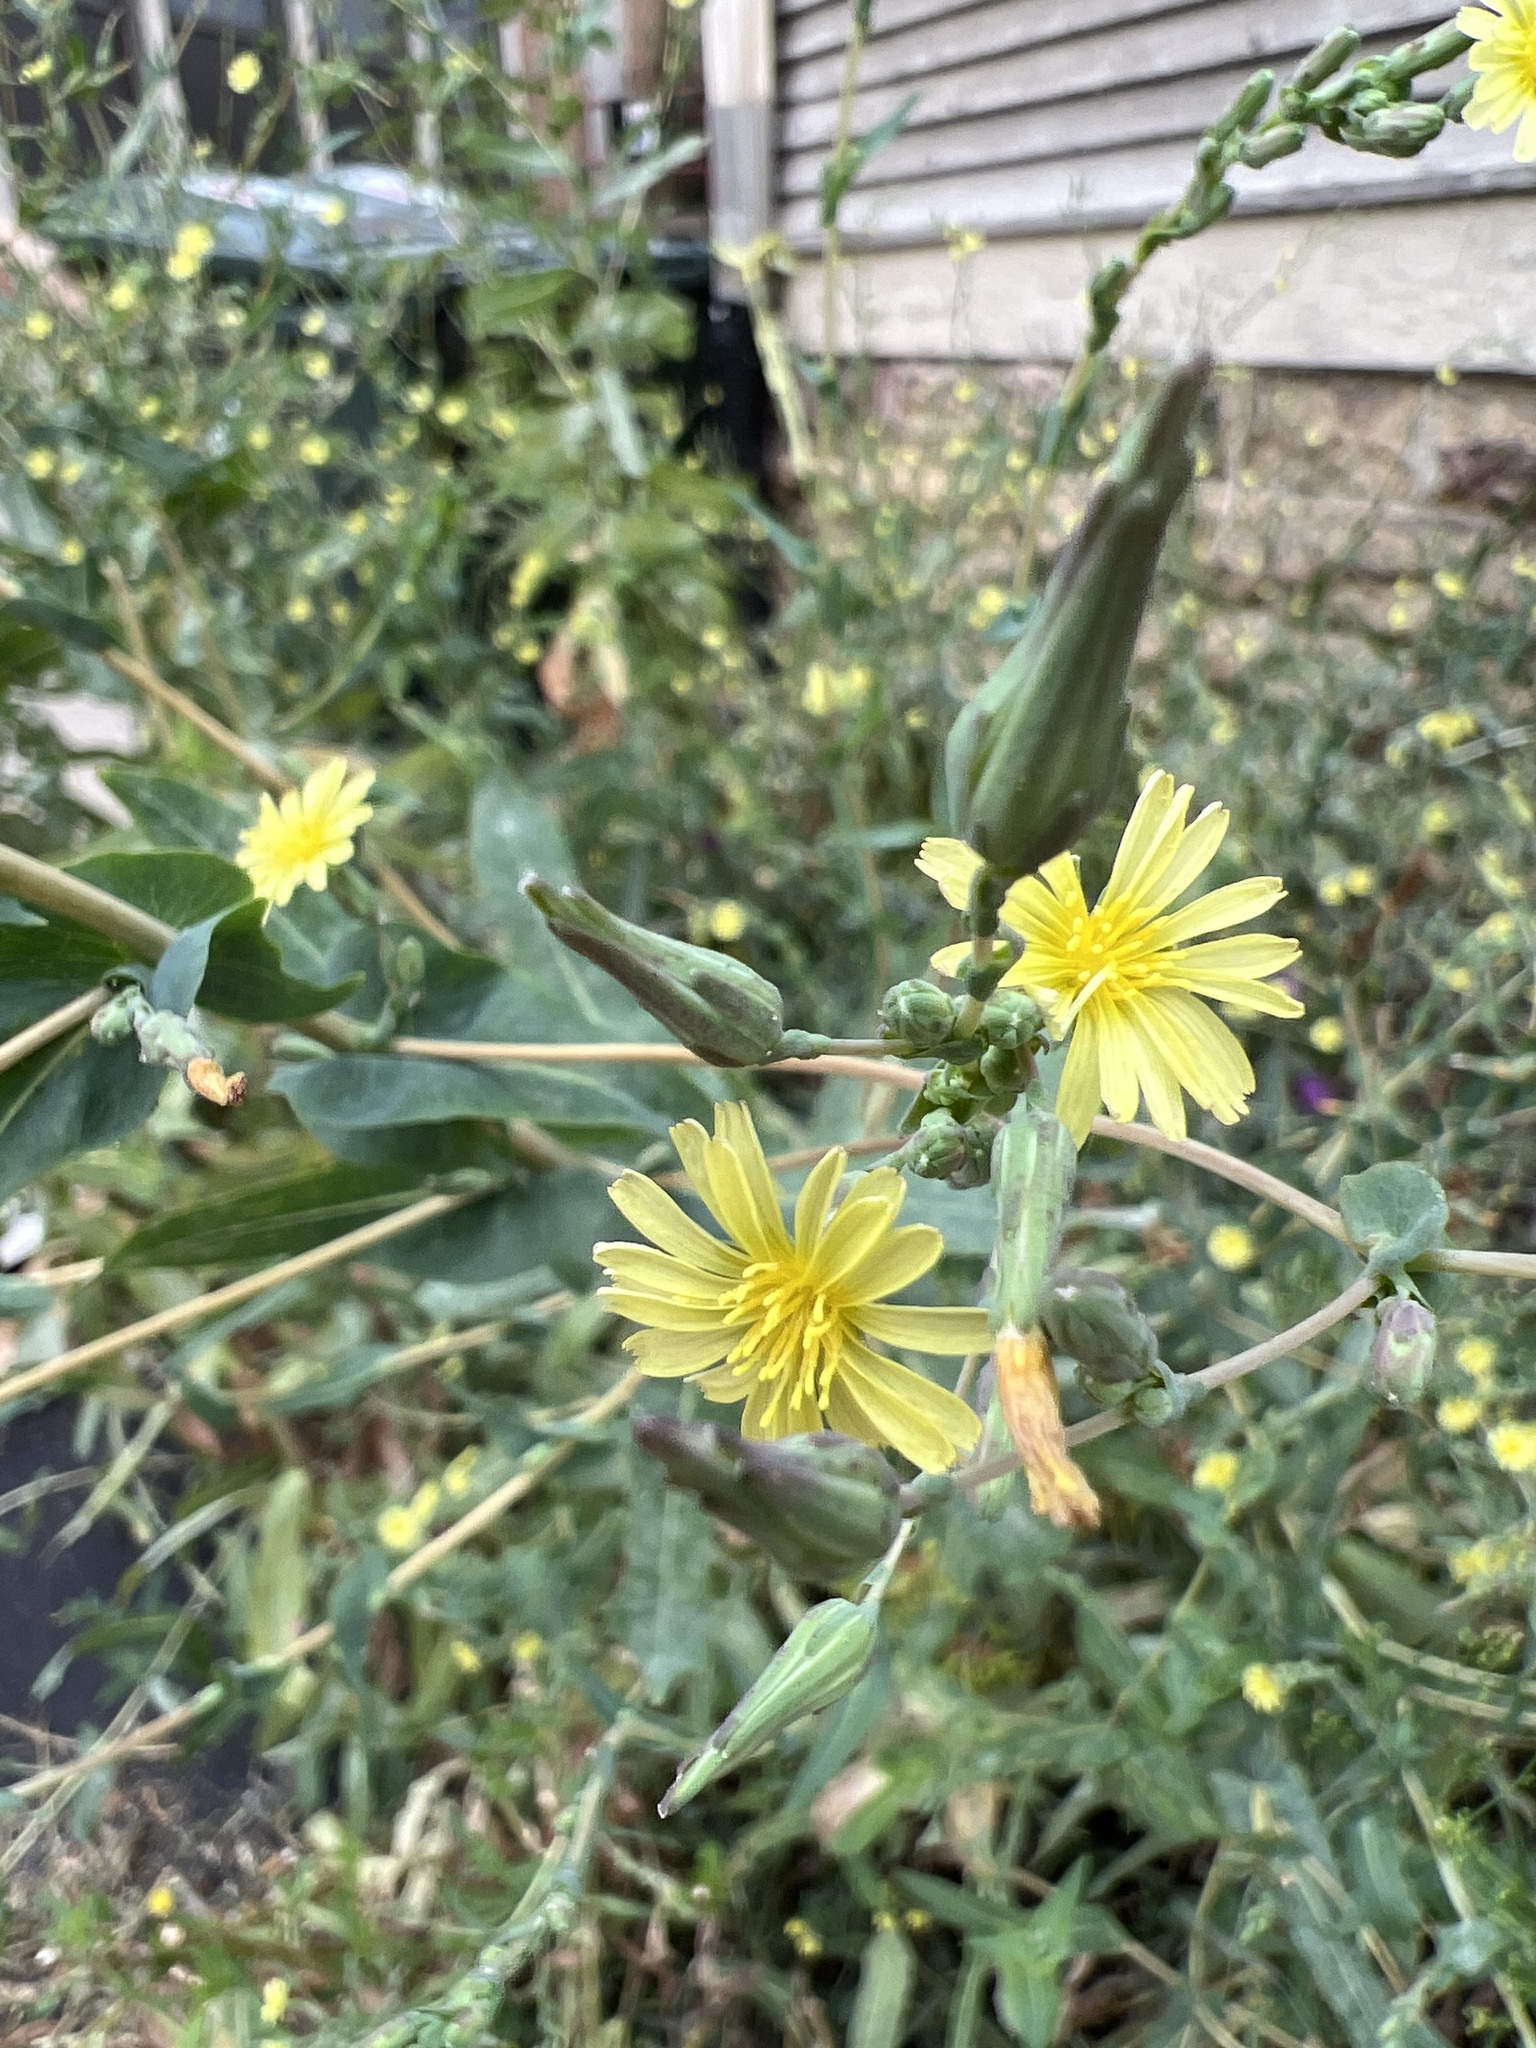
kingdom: Plantae
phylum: Tracheophyta
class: Magnoliopsida
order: Asterales
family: Asteraceae
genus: Lactuca
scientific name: Lactuca serriola
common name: Prickly lettuce
